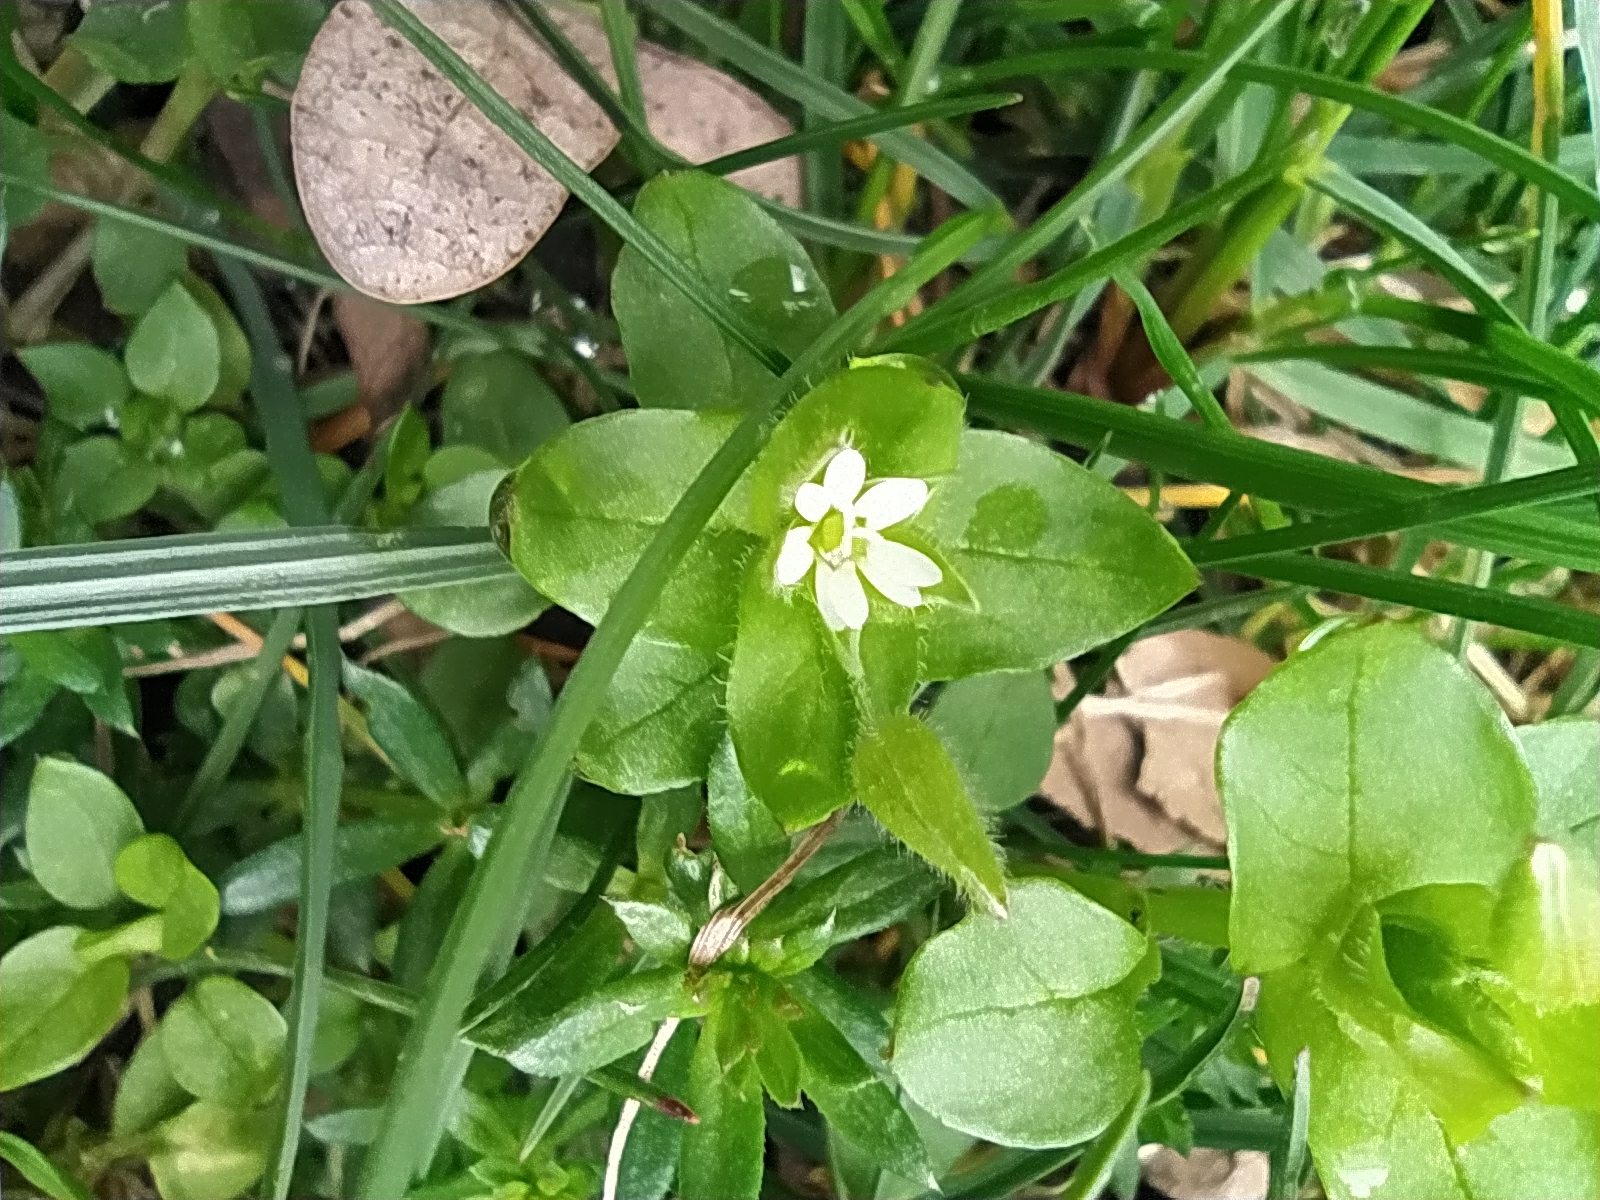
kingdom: Plantae
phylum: Tracheophyta
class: Magnoliopsida
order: Caryophyllales
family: Caryophyllaceae
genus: Stellaria
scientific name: Stellaria media
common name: Common chickweed
